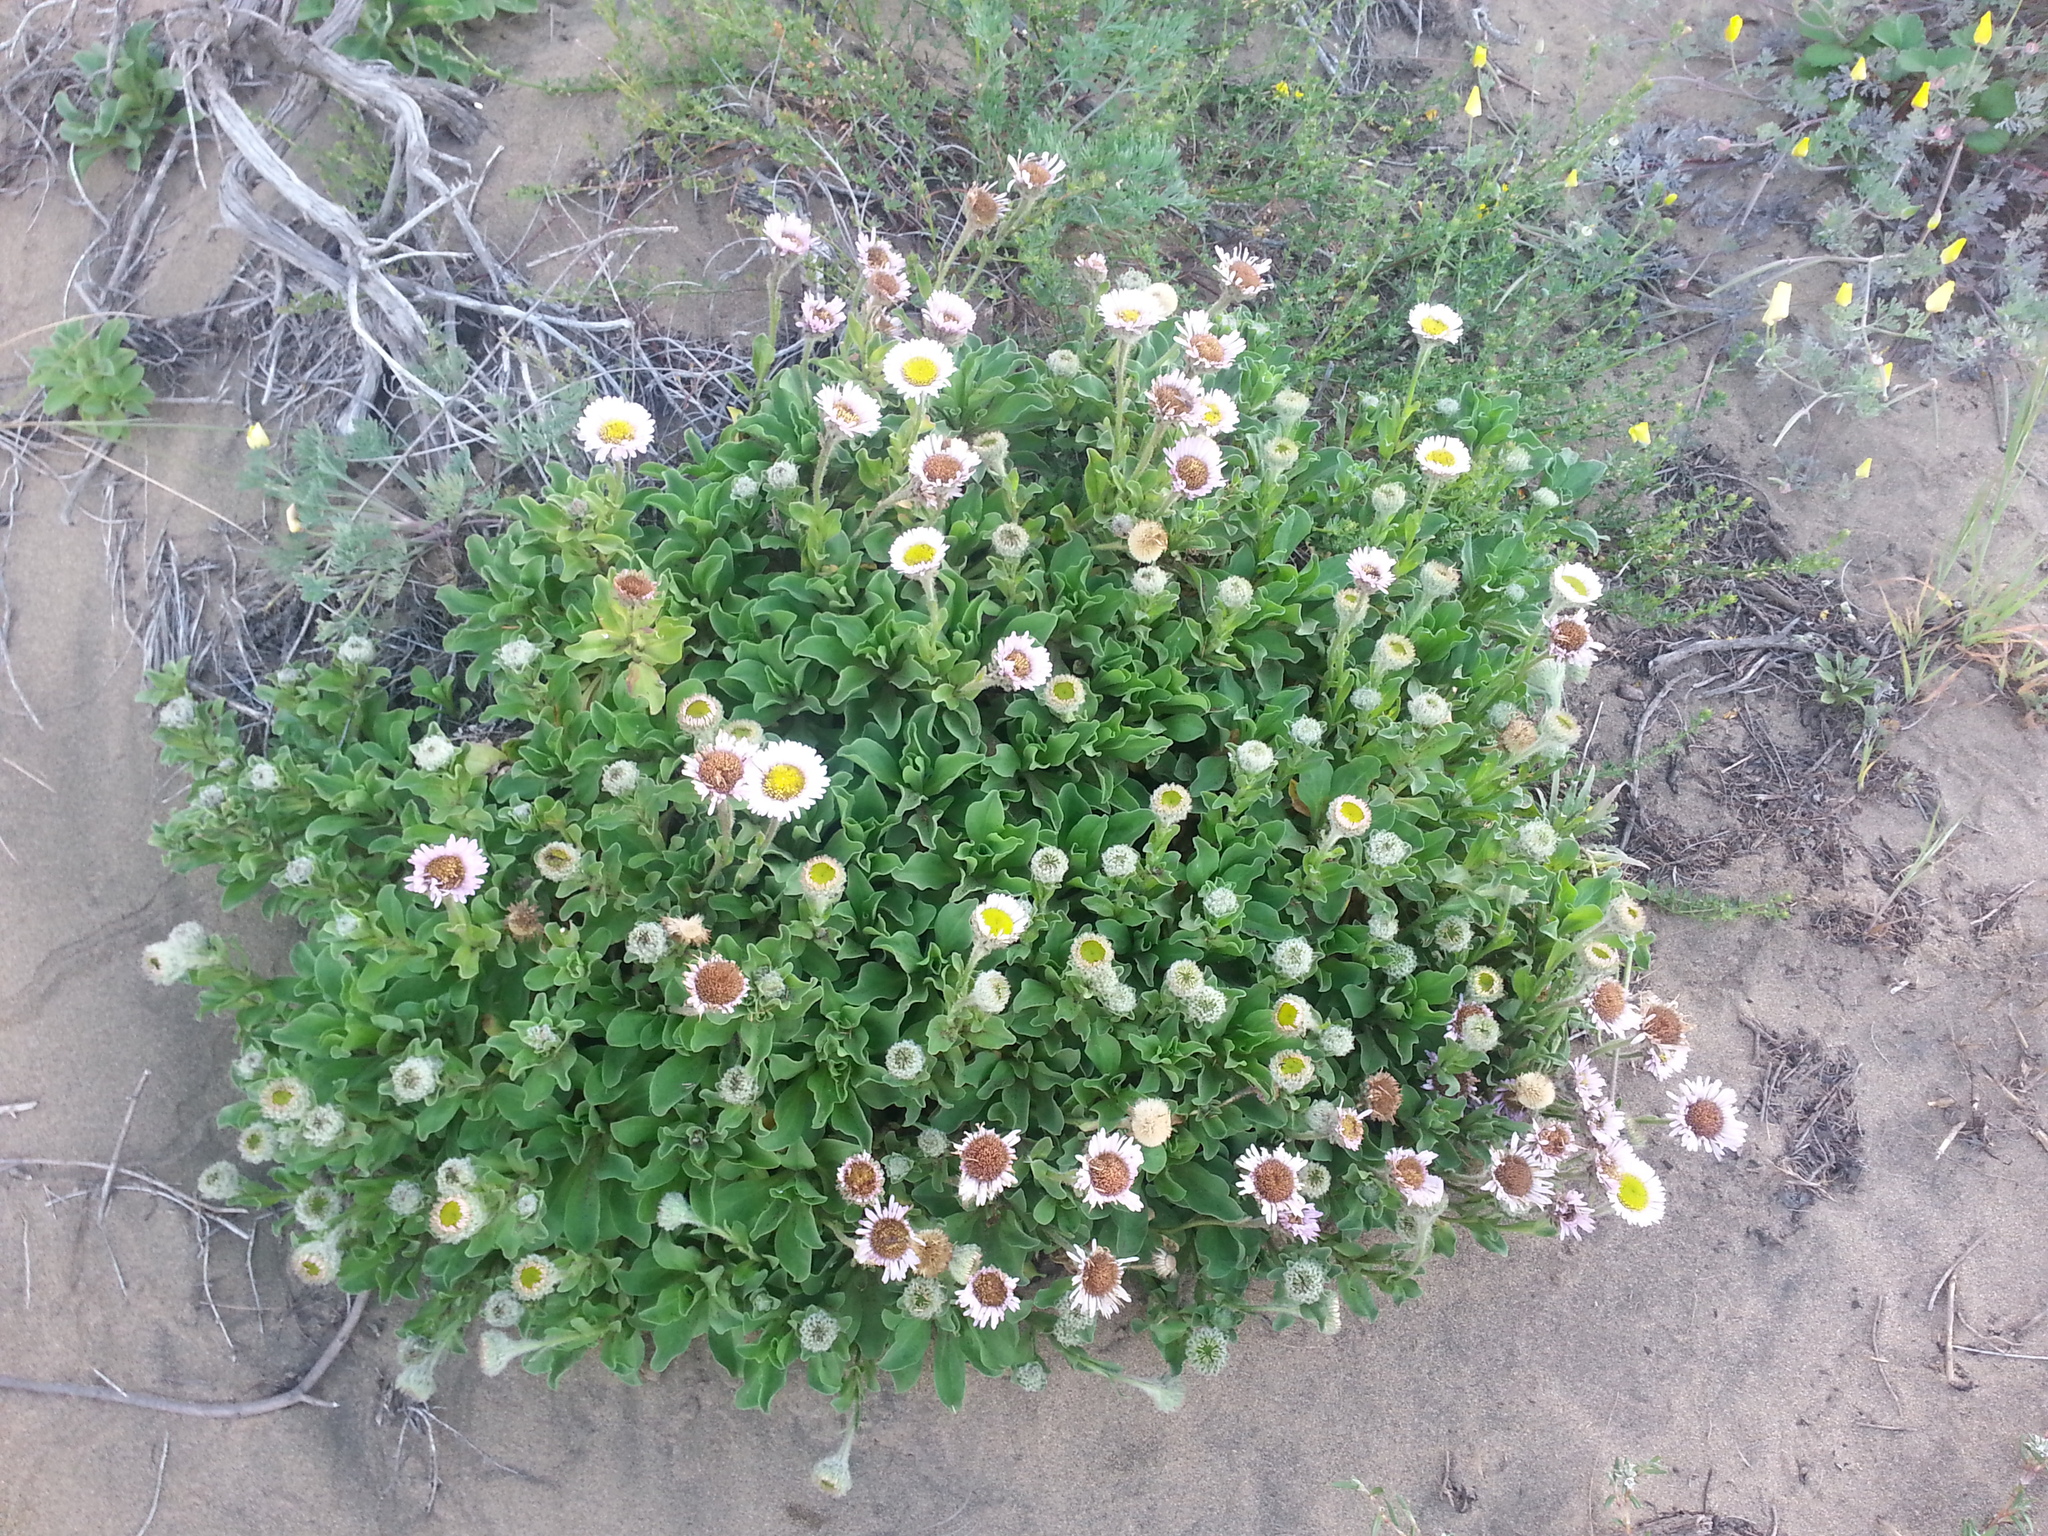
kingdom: Plantae
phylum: Tracheophyta
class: Magnoliopsida
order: Asterales
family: Asteraceae
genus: Erigeron
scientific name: Erigeron glaucus
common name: Seaside daisy
